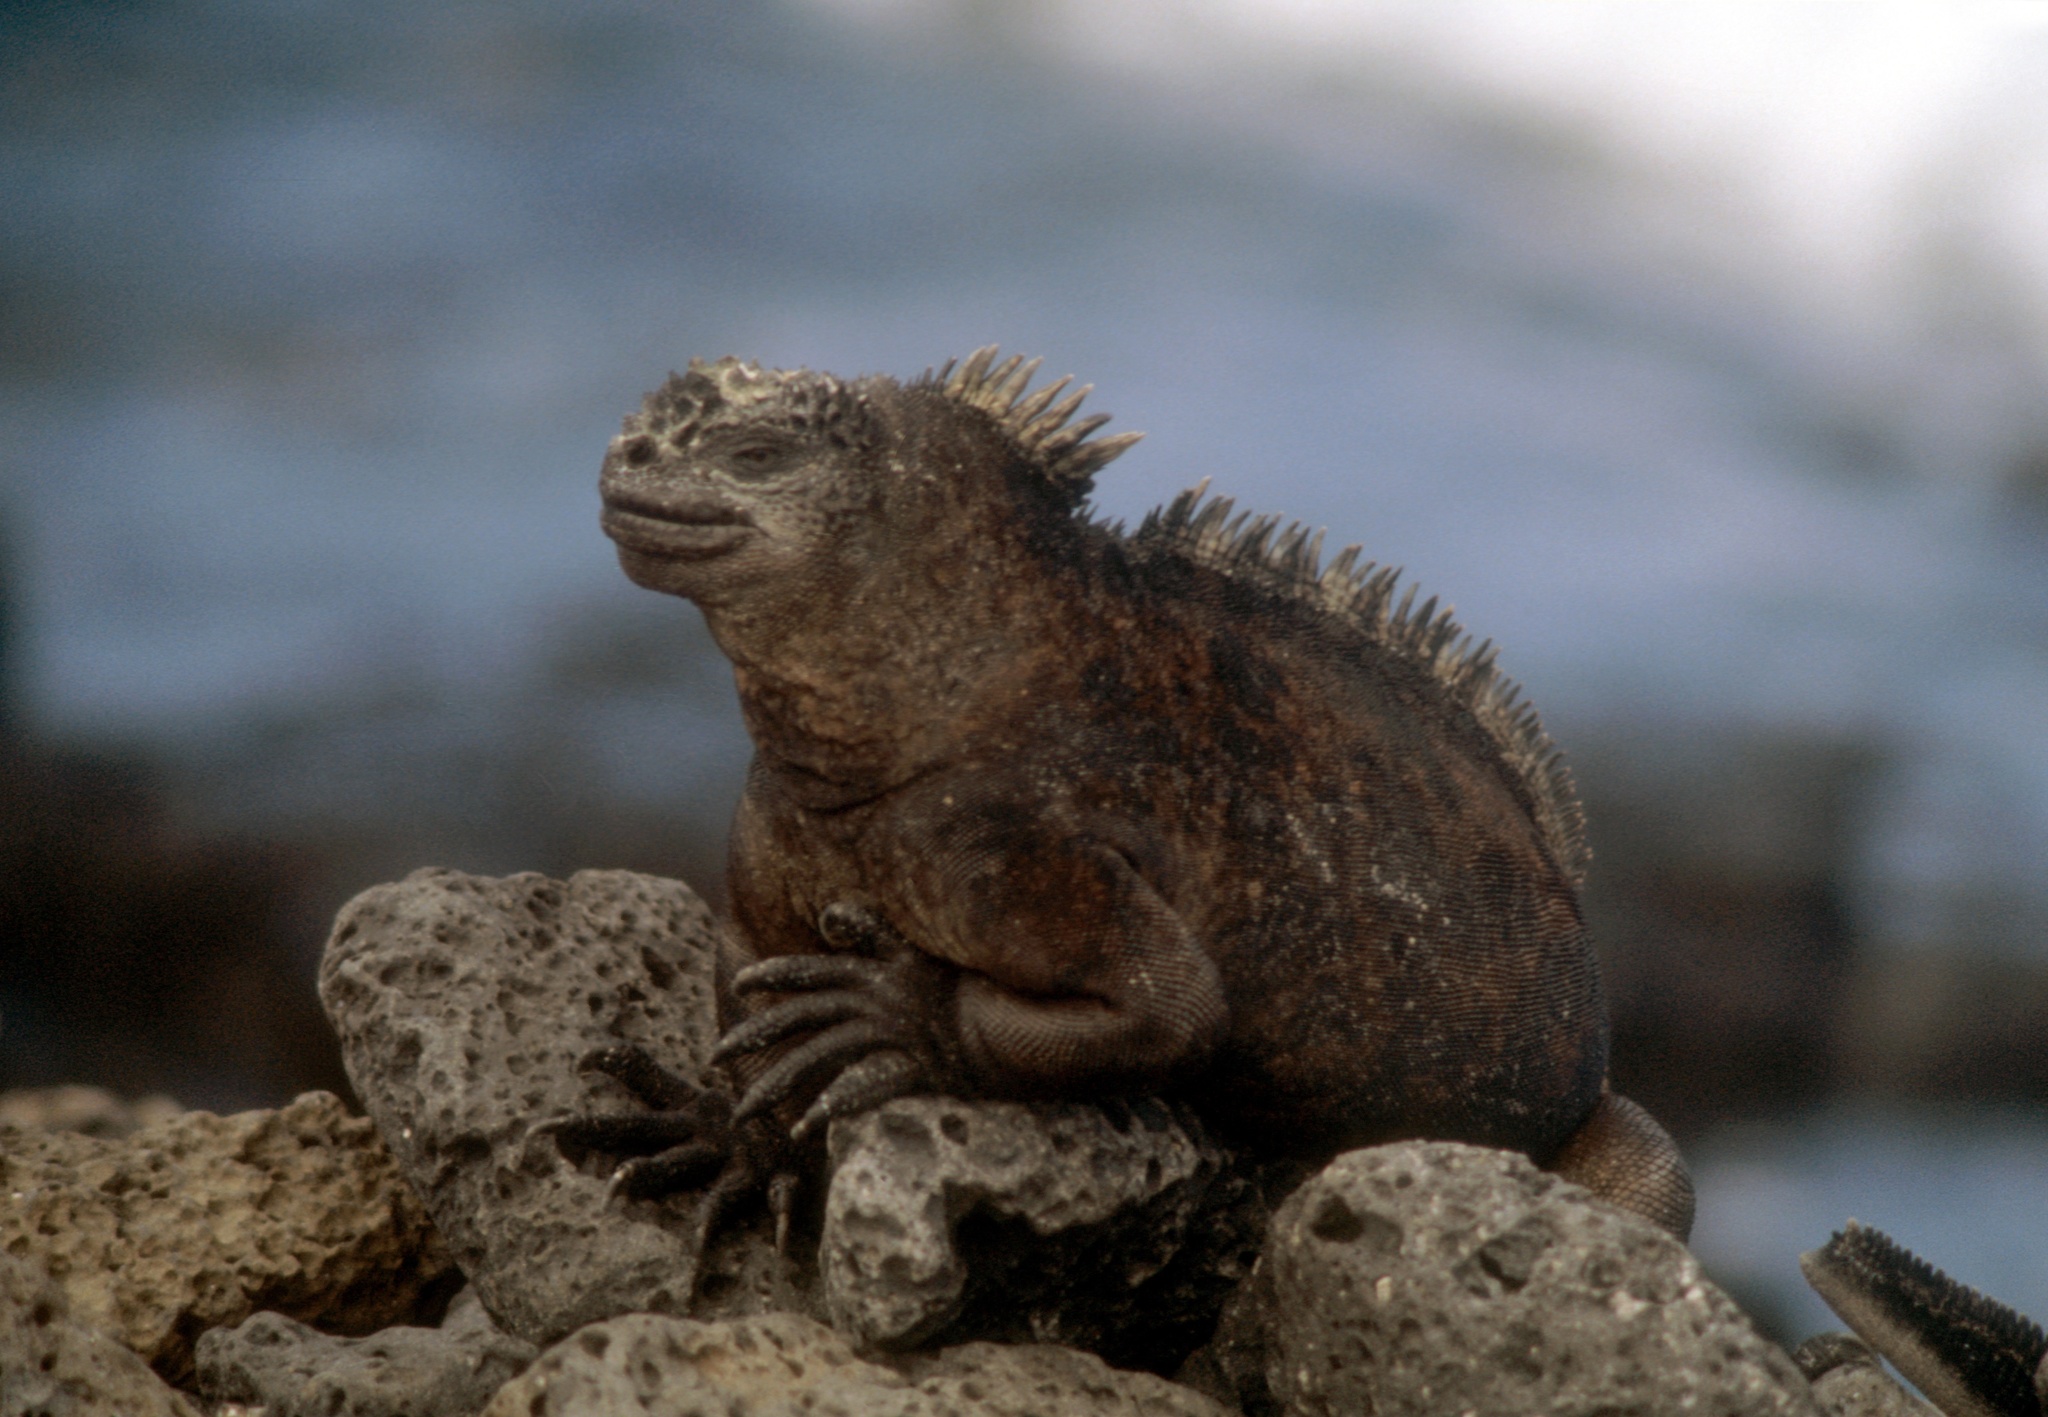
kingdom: Animalia
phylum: Chordata
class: Squamata
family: Iguanidae
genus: Amblyrhynchus
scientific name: Amblyrhynchus cristatus
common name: Marine iguana
